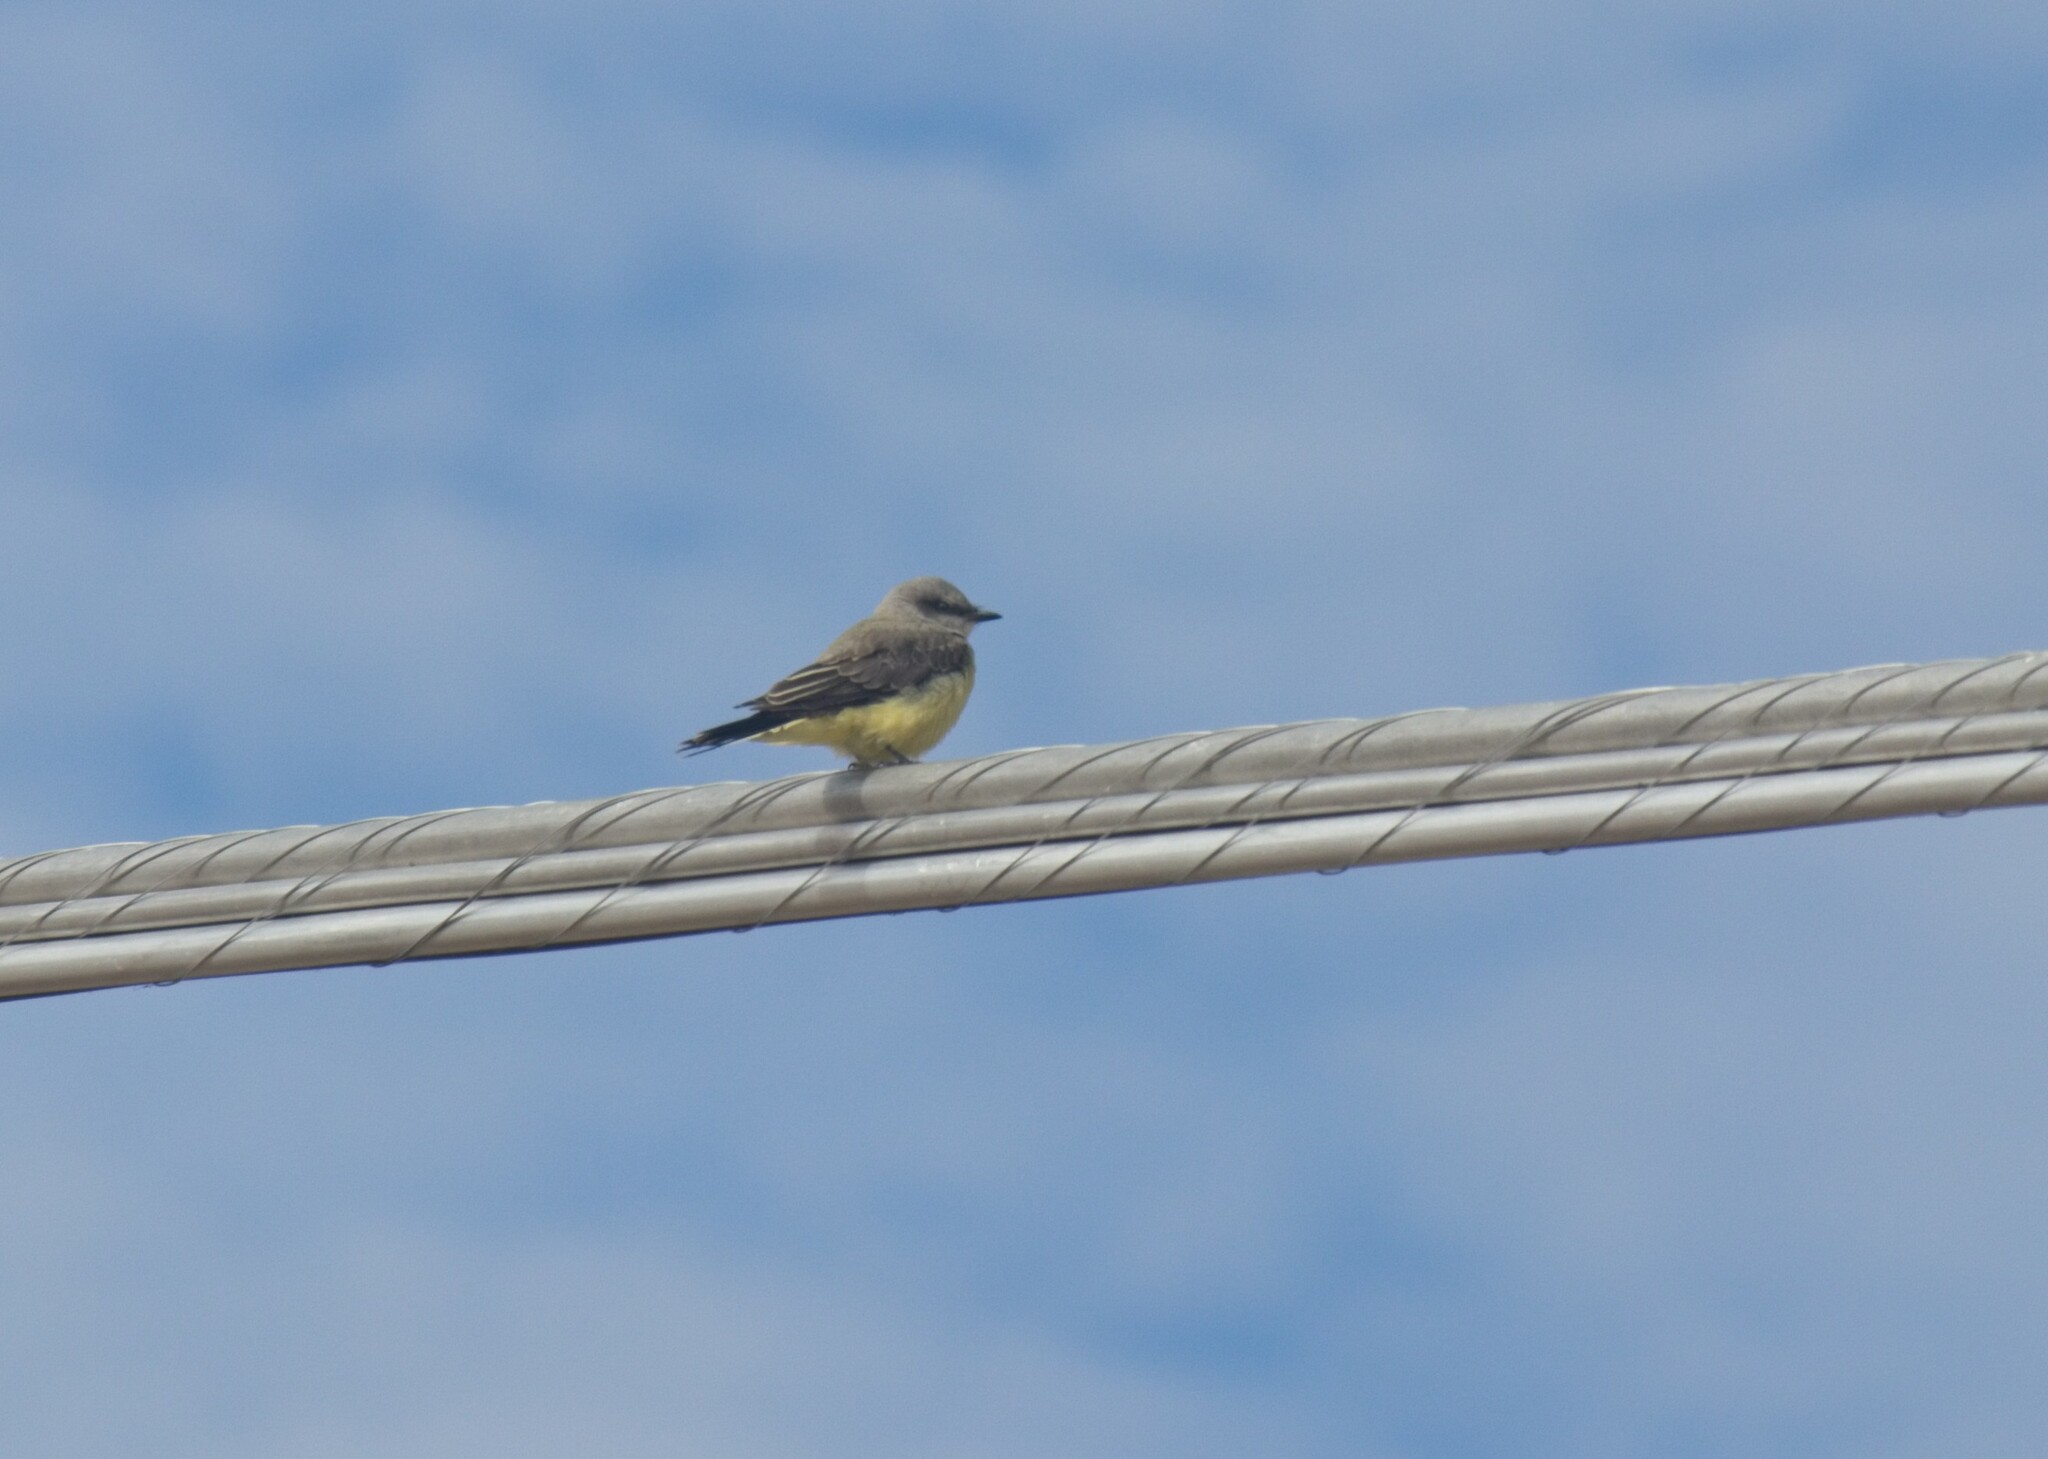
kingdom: Animalia
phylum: Chordata
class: Aves
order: Passeriformes
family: Tyrannidae
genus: Tyrannus
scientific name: Tyrannus verticalis
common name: Western kingbird
